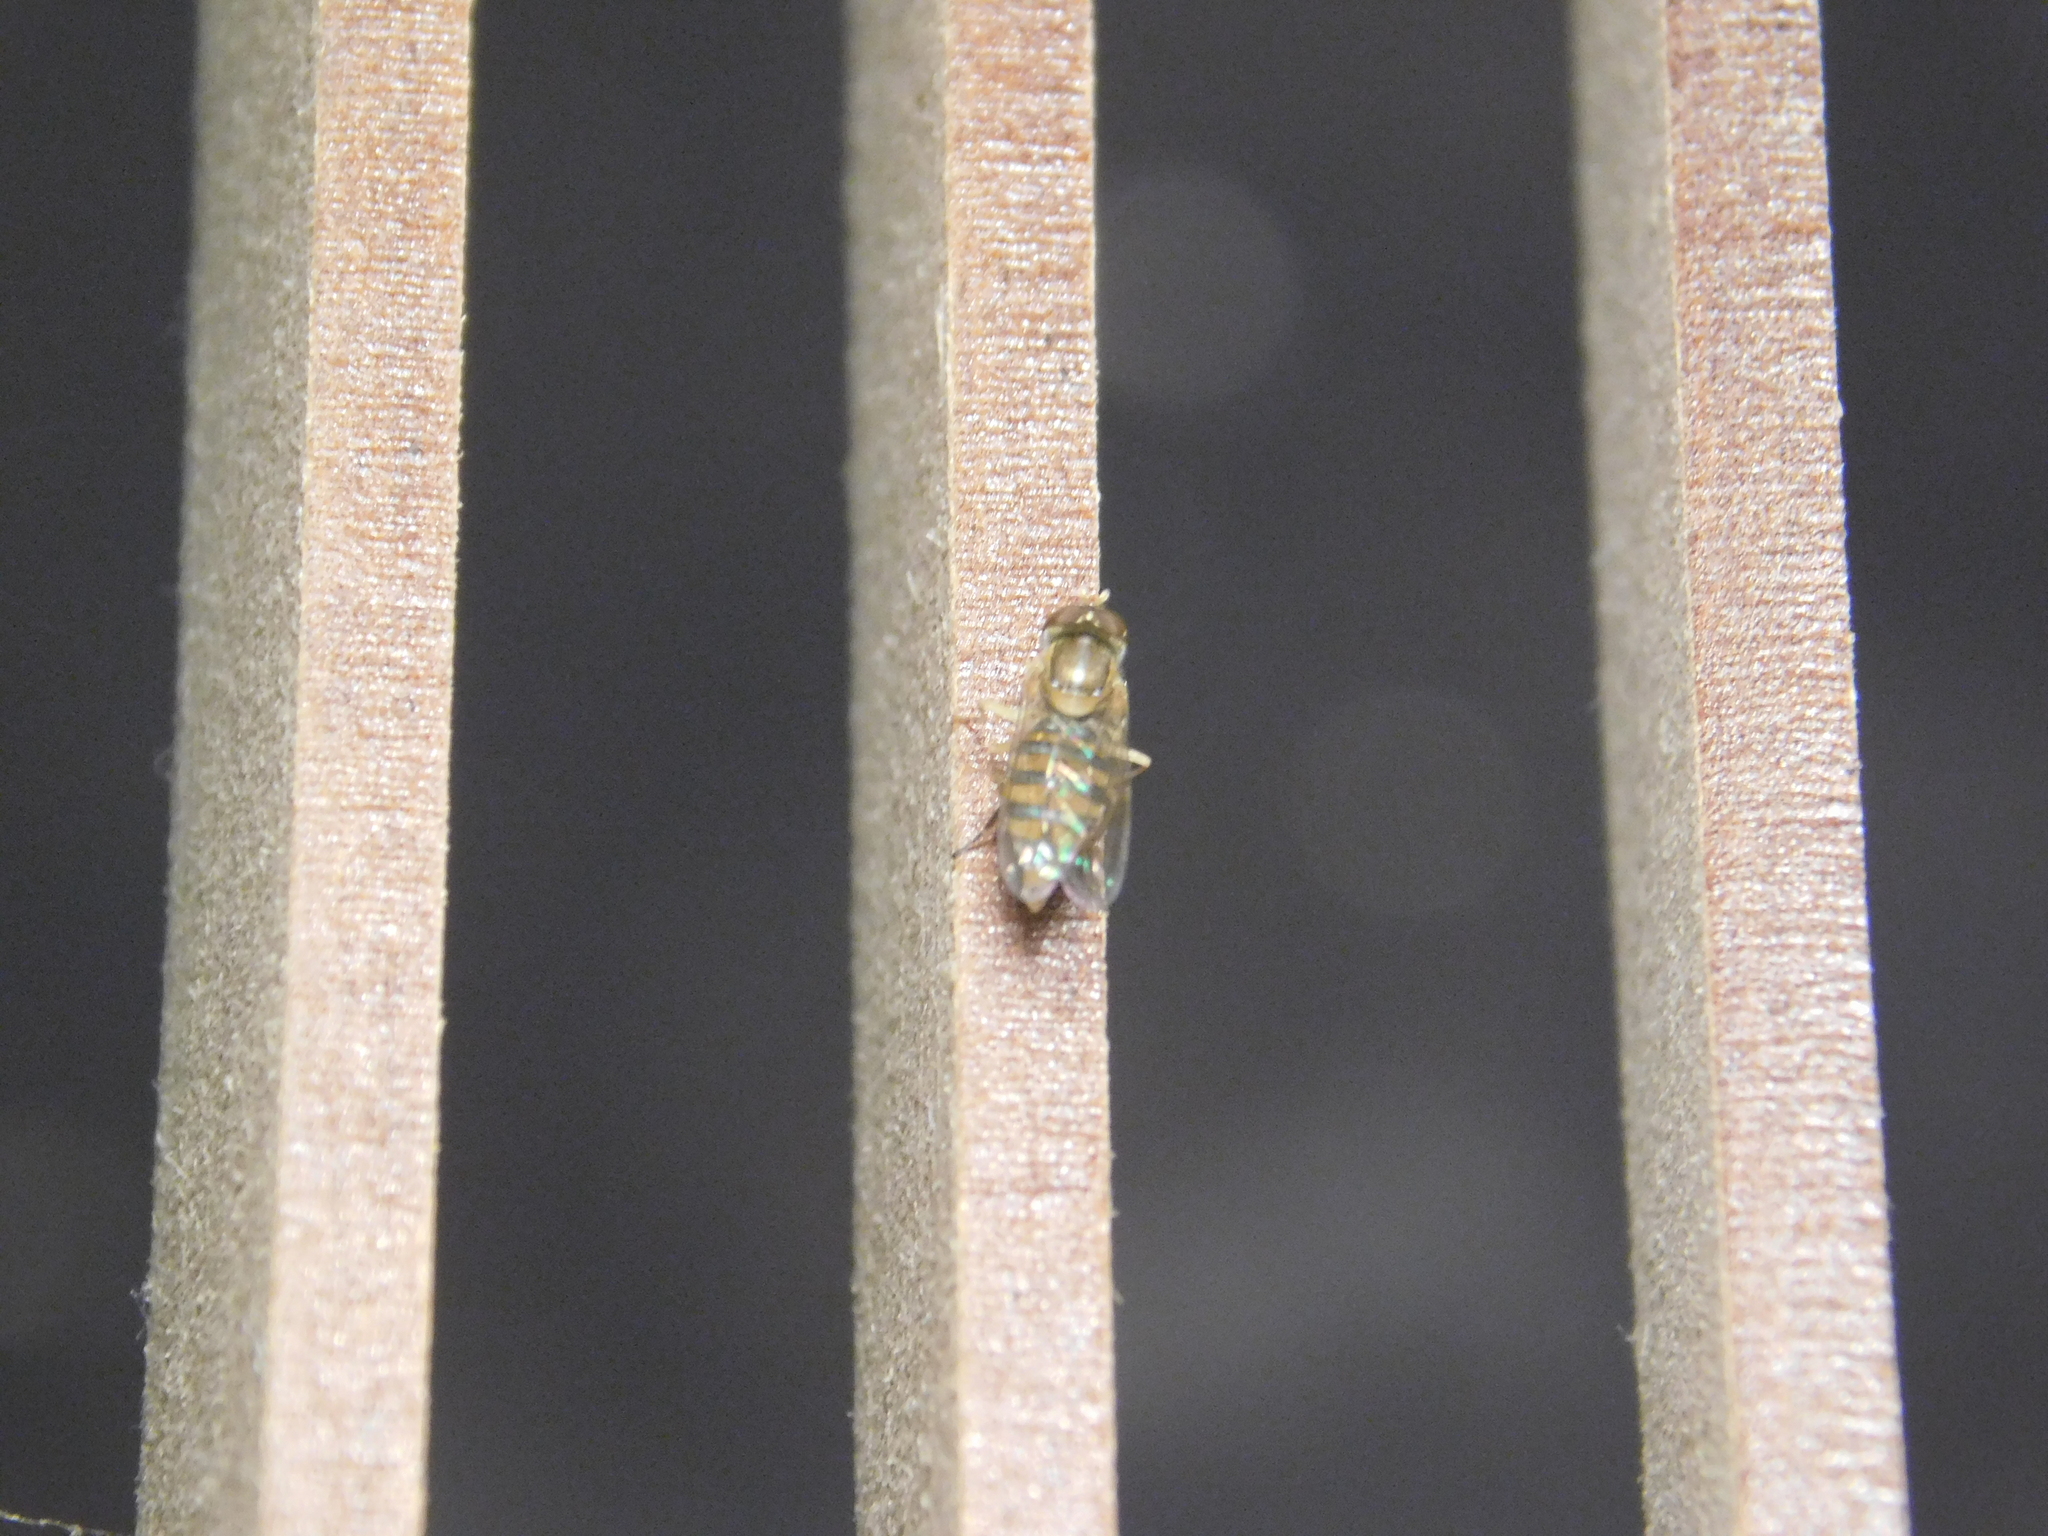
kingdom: Animalia
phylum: Arthropoda
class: Insecta
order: Diptera
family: Syrphidae
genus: Toxomerus
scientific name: Toxomerus
